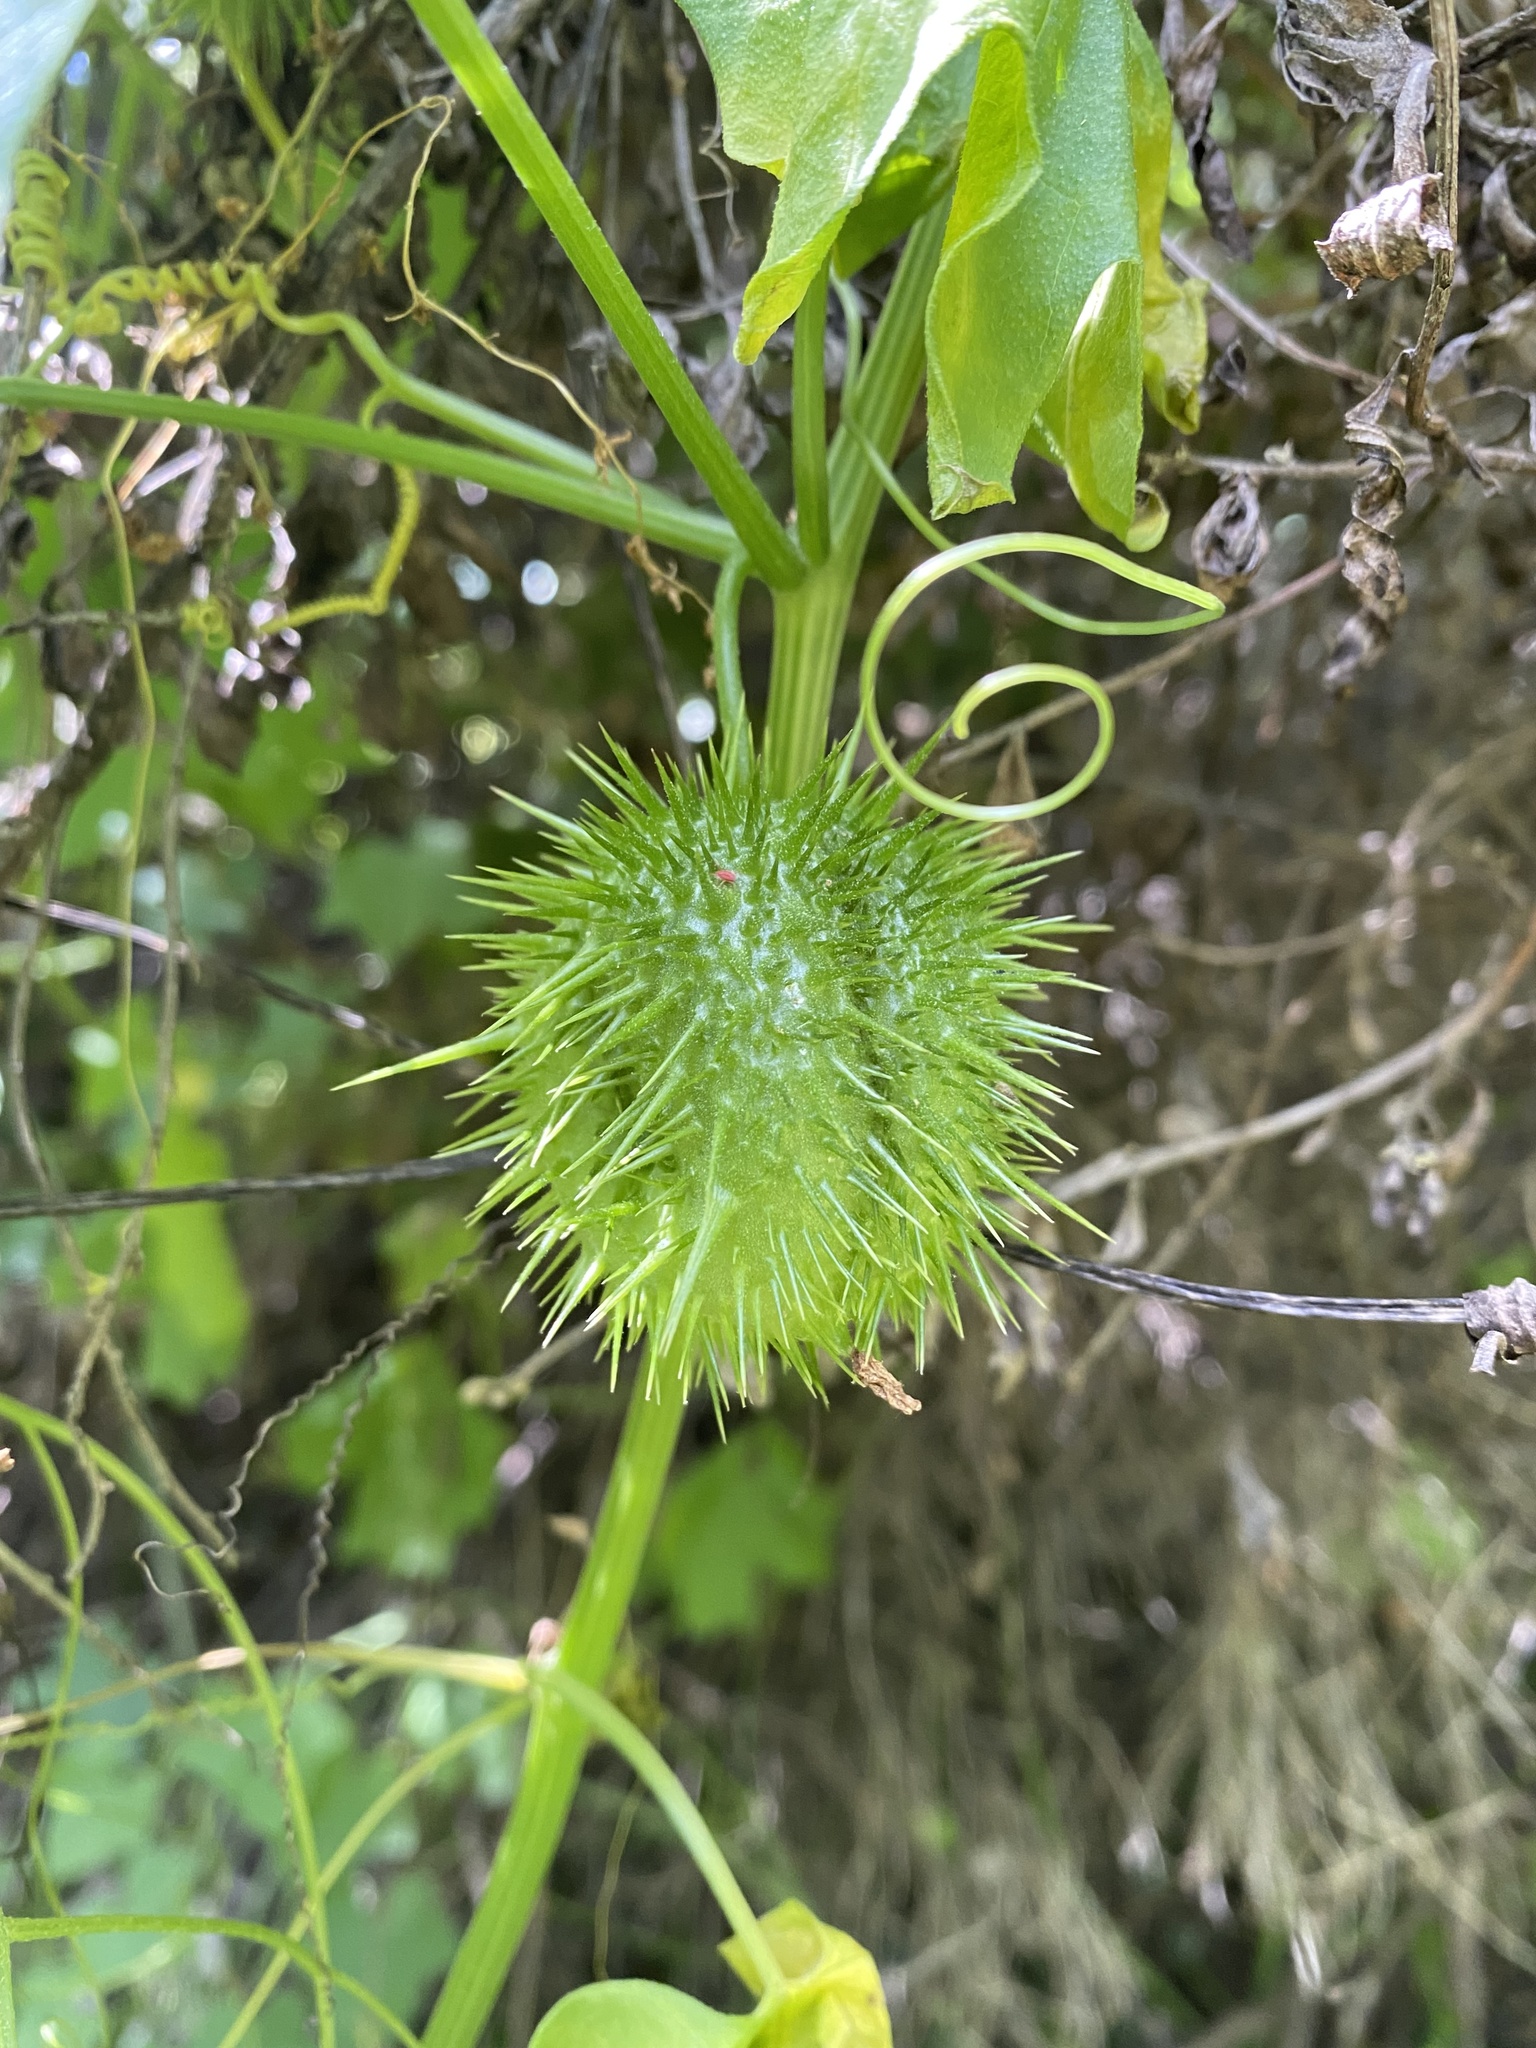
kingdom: Plantae
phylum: Tracheophyta
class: Magnoliopsida
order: Cucurbitales
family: Cucurbitaceae
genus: Marah
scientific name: Marah fabacea
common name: California manroot
